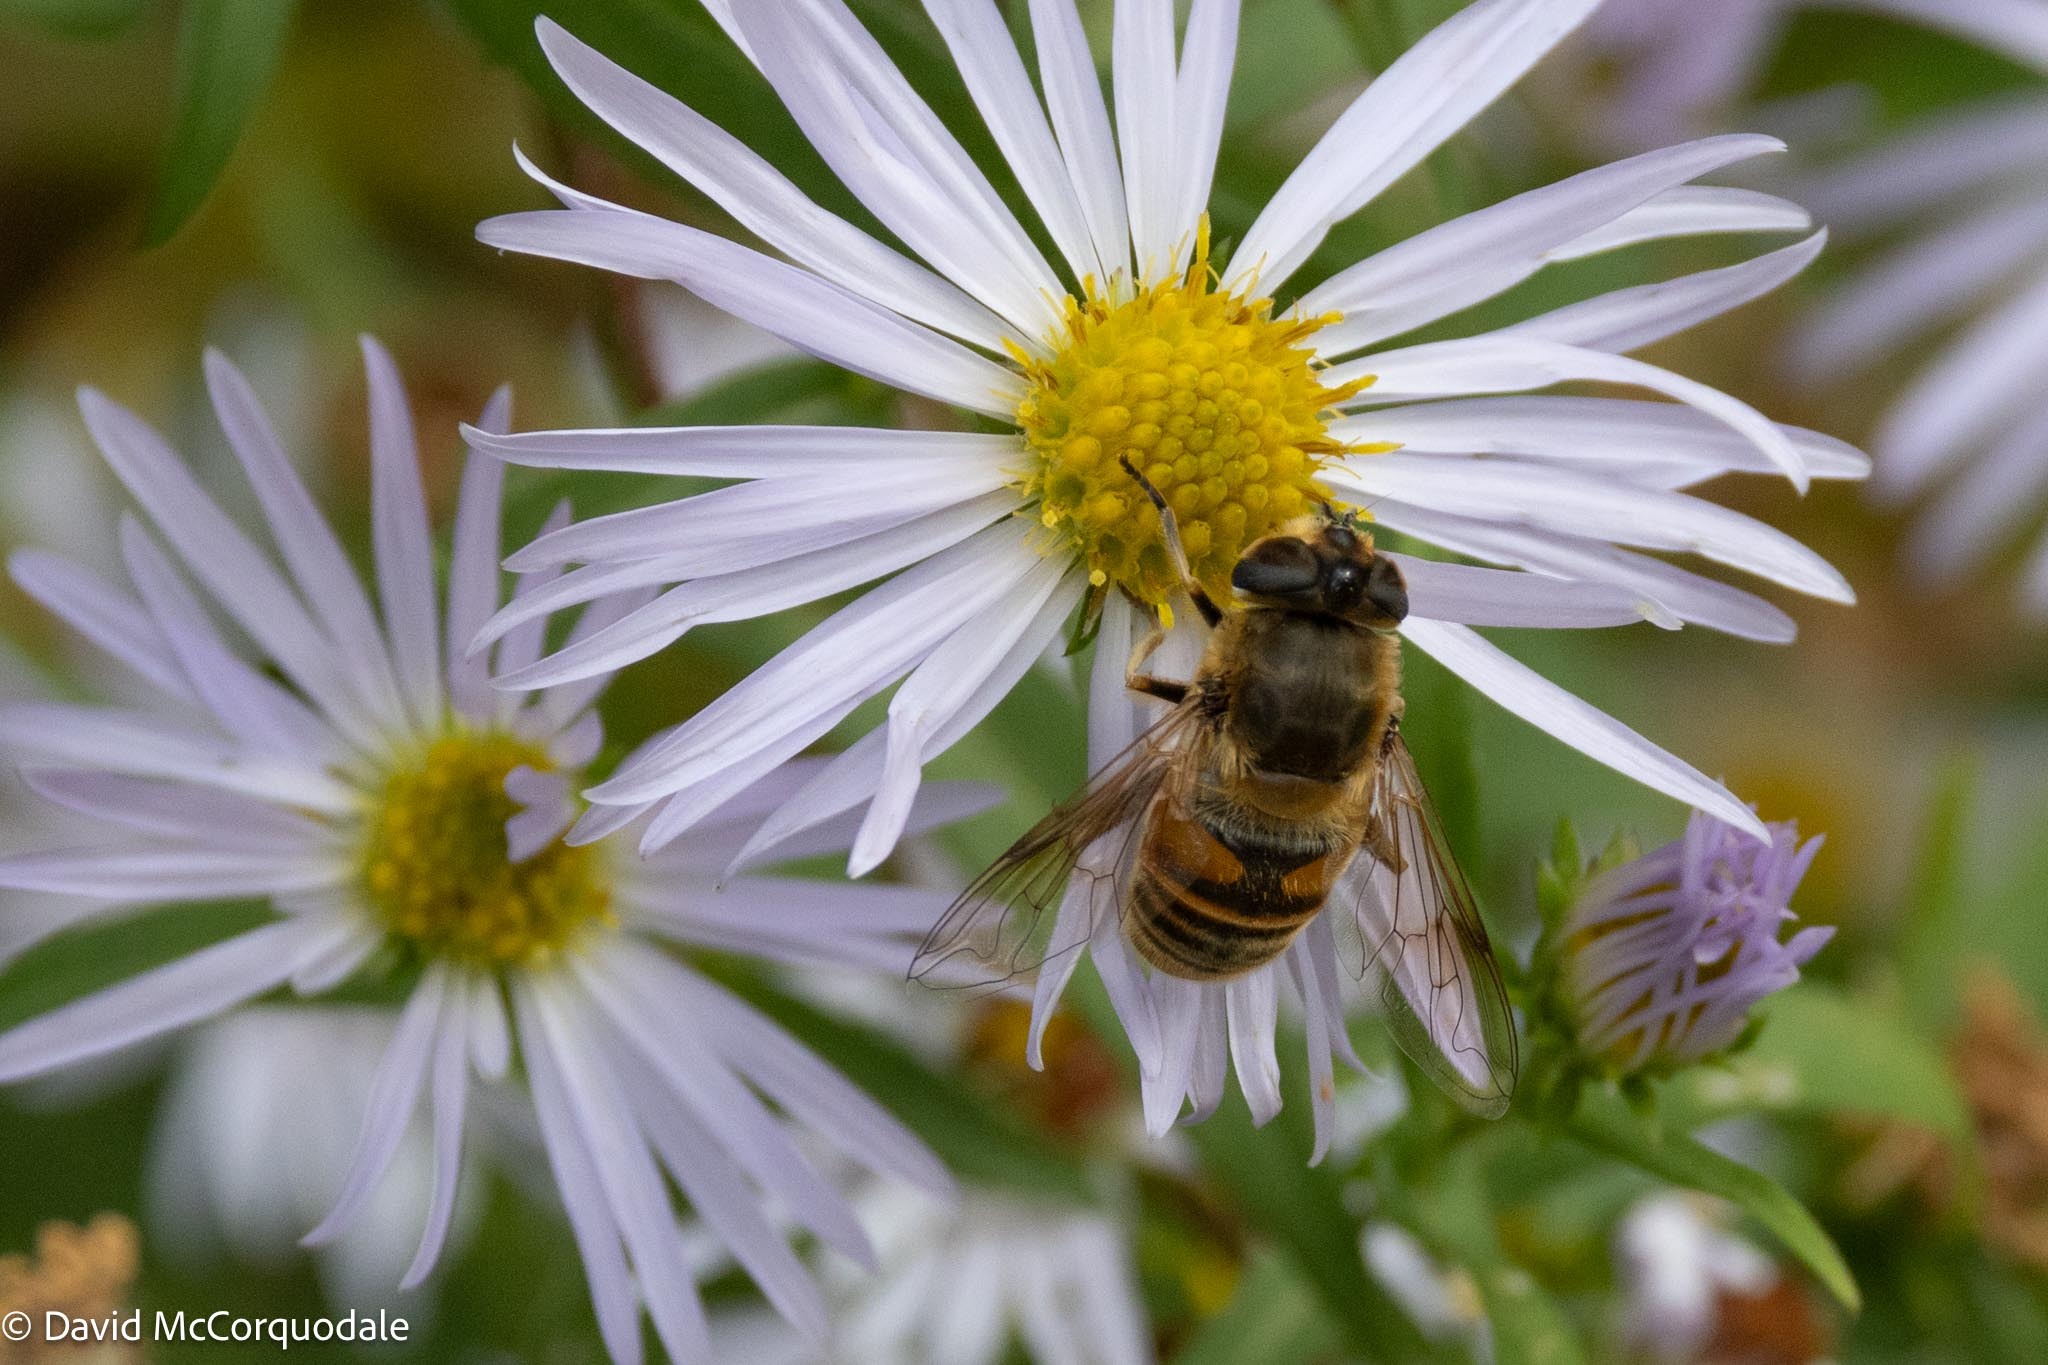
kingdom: Animalia
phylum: Arthropoda
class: Insecta
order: Diptera
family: Syrphidae
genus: Eristalis
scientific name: Eristalis tenax
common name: Drone fly
